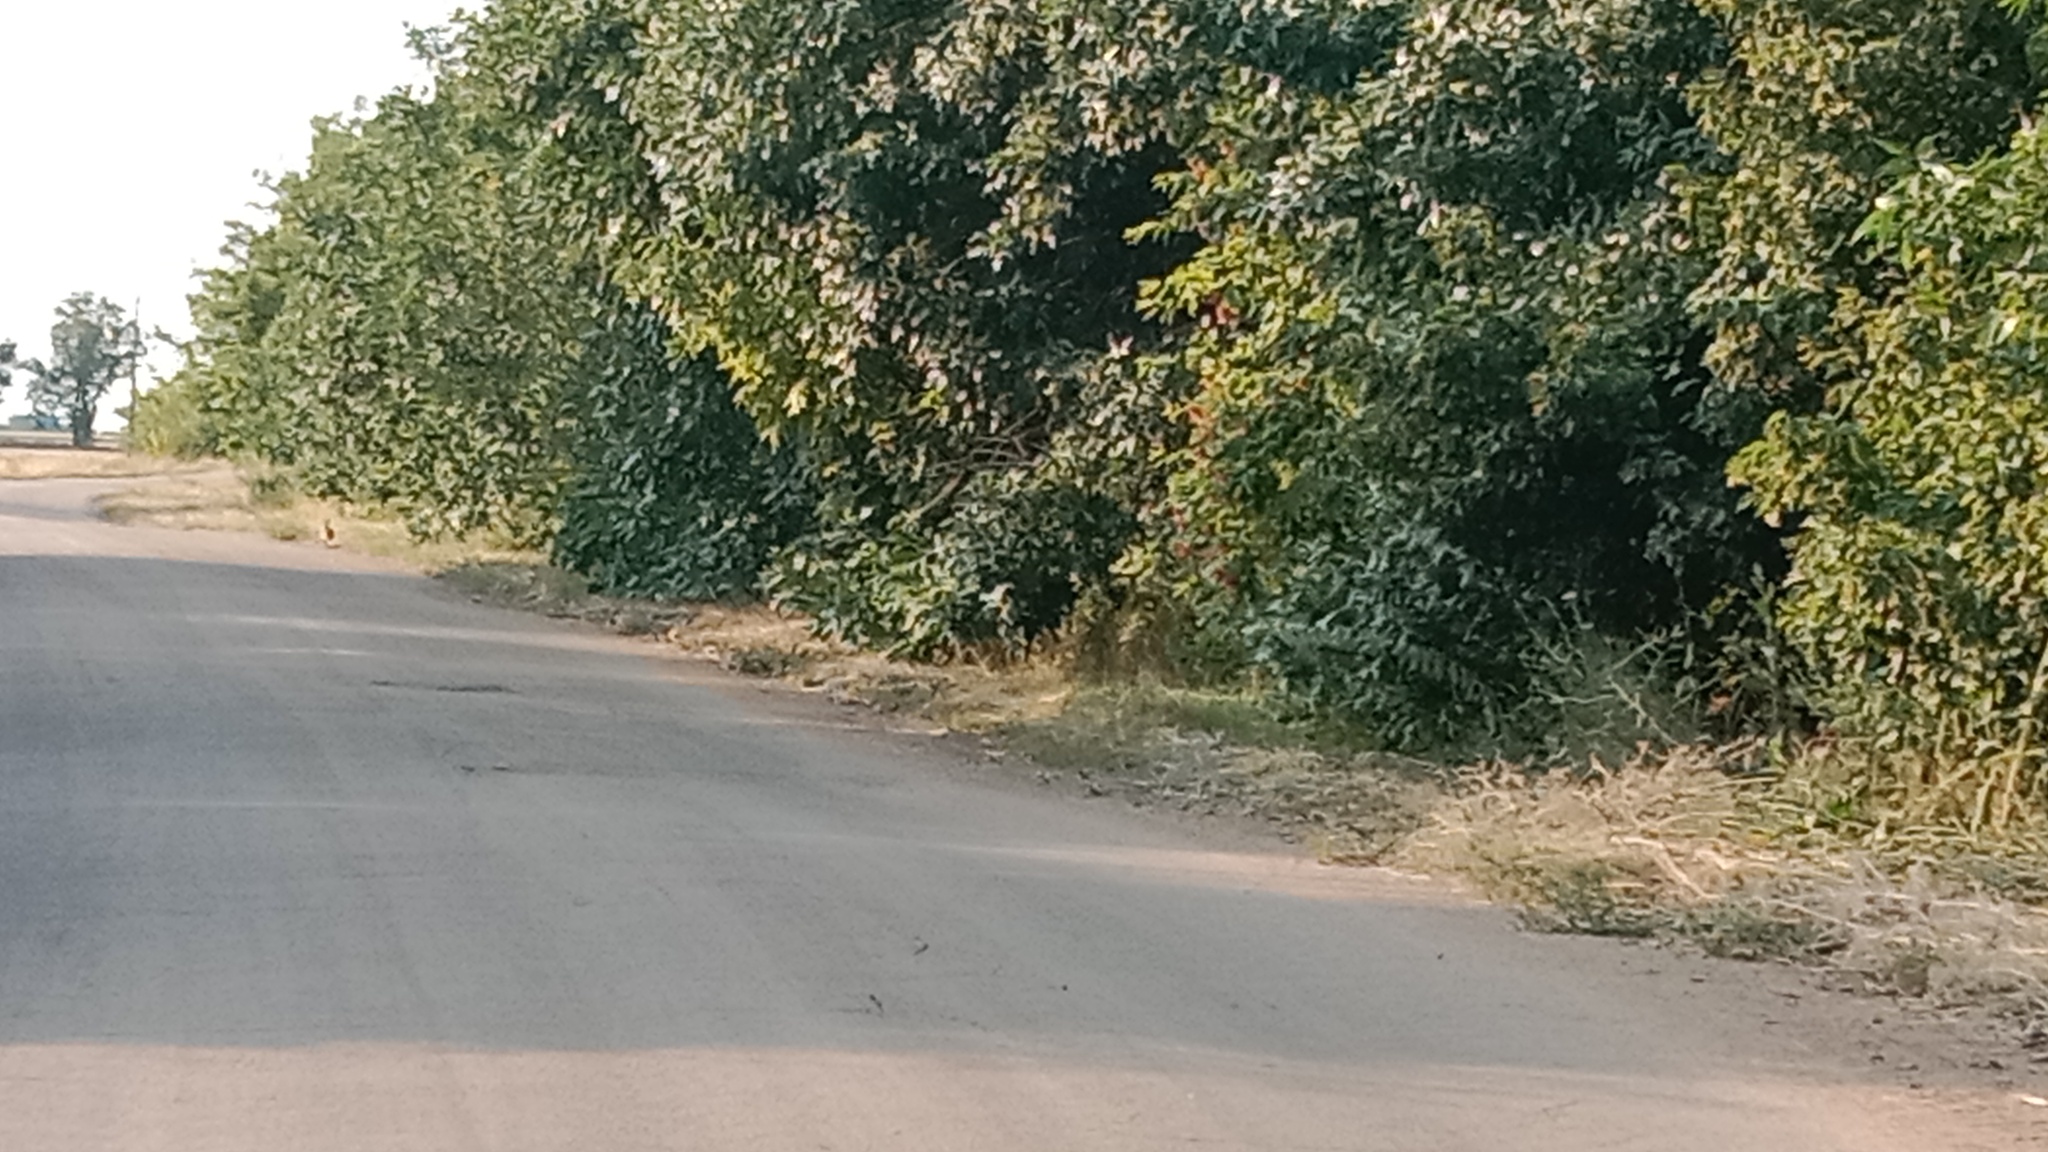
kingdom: Animalia
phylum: Chordata
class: Aves
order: Galliformes
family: Phasianidae
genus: Phasianus
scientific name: Phasianus colchicus
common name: Common pheasant
